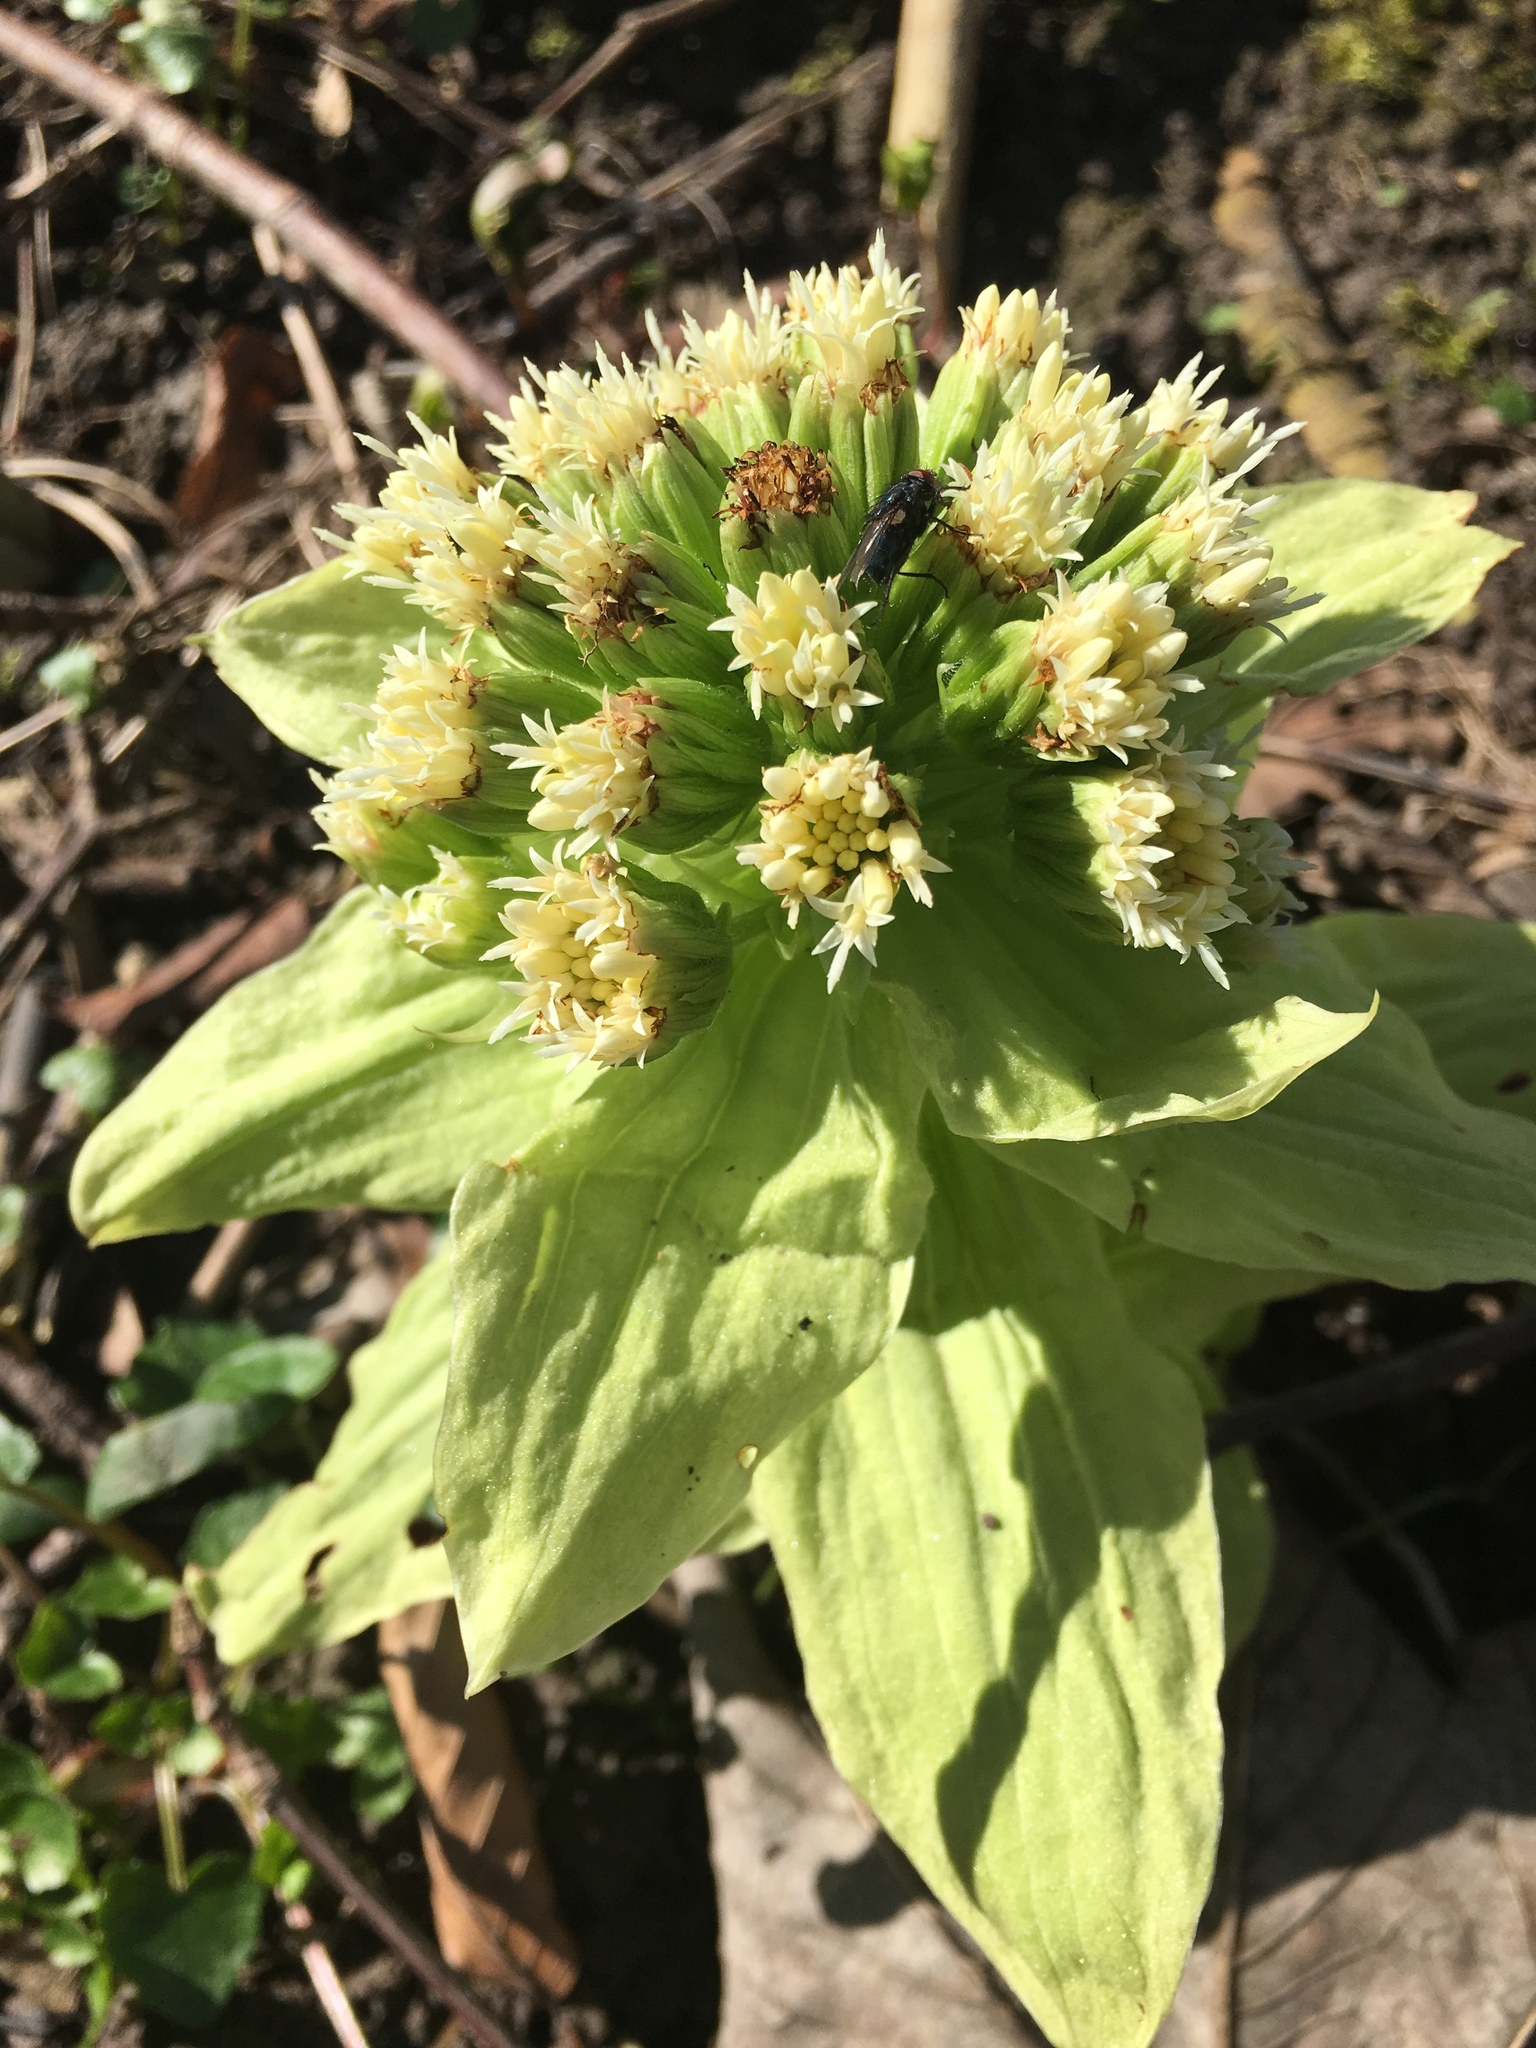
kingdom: Plantae
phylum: Tracheophyta
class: Magnoliopsida
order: Asterales
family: Asteraceae
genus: Petasites
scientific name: Petasites japonicus
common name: Giant butterbur
